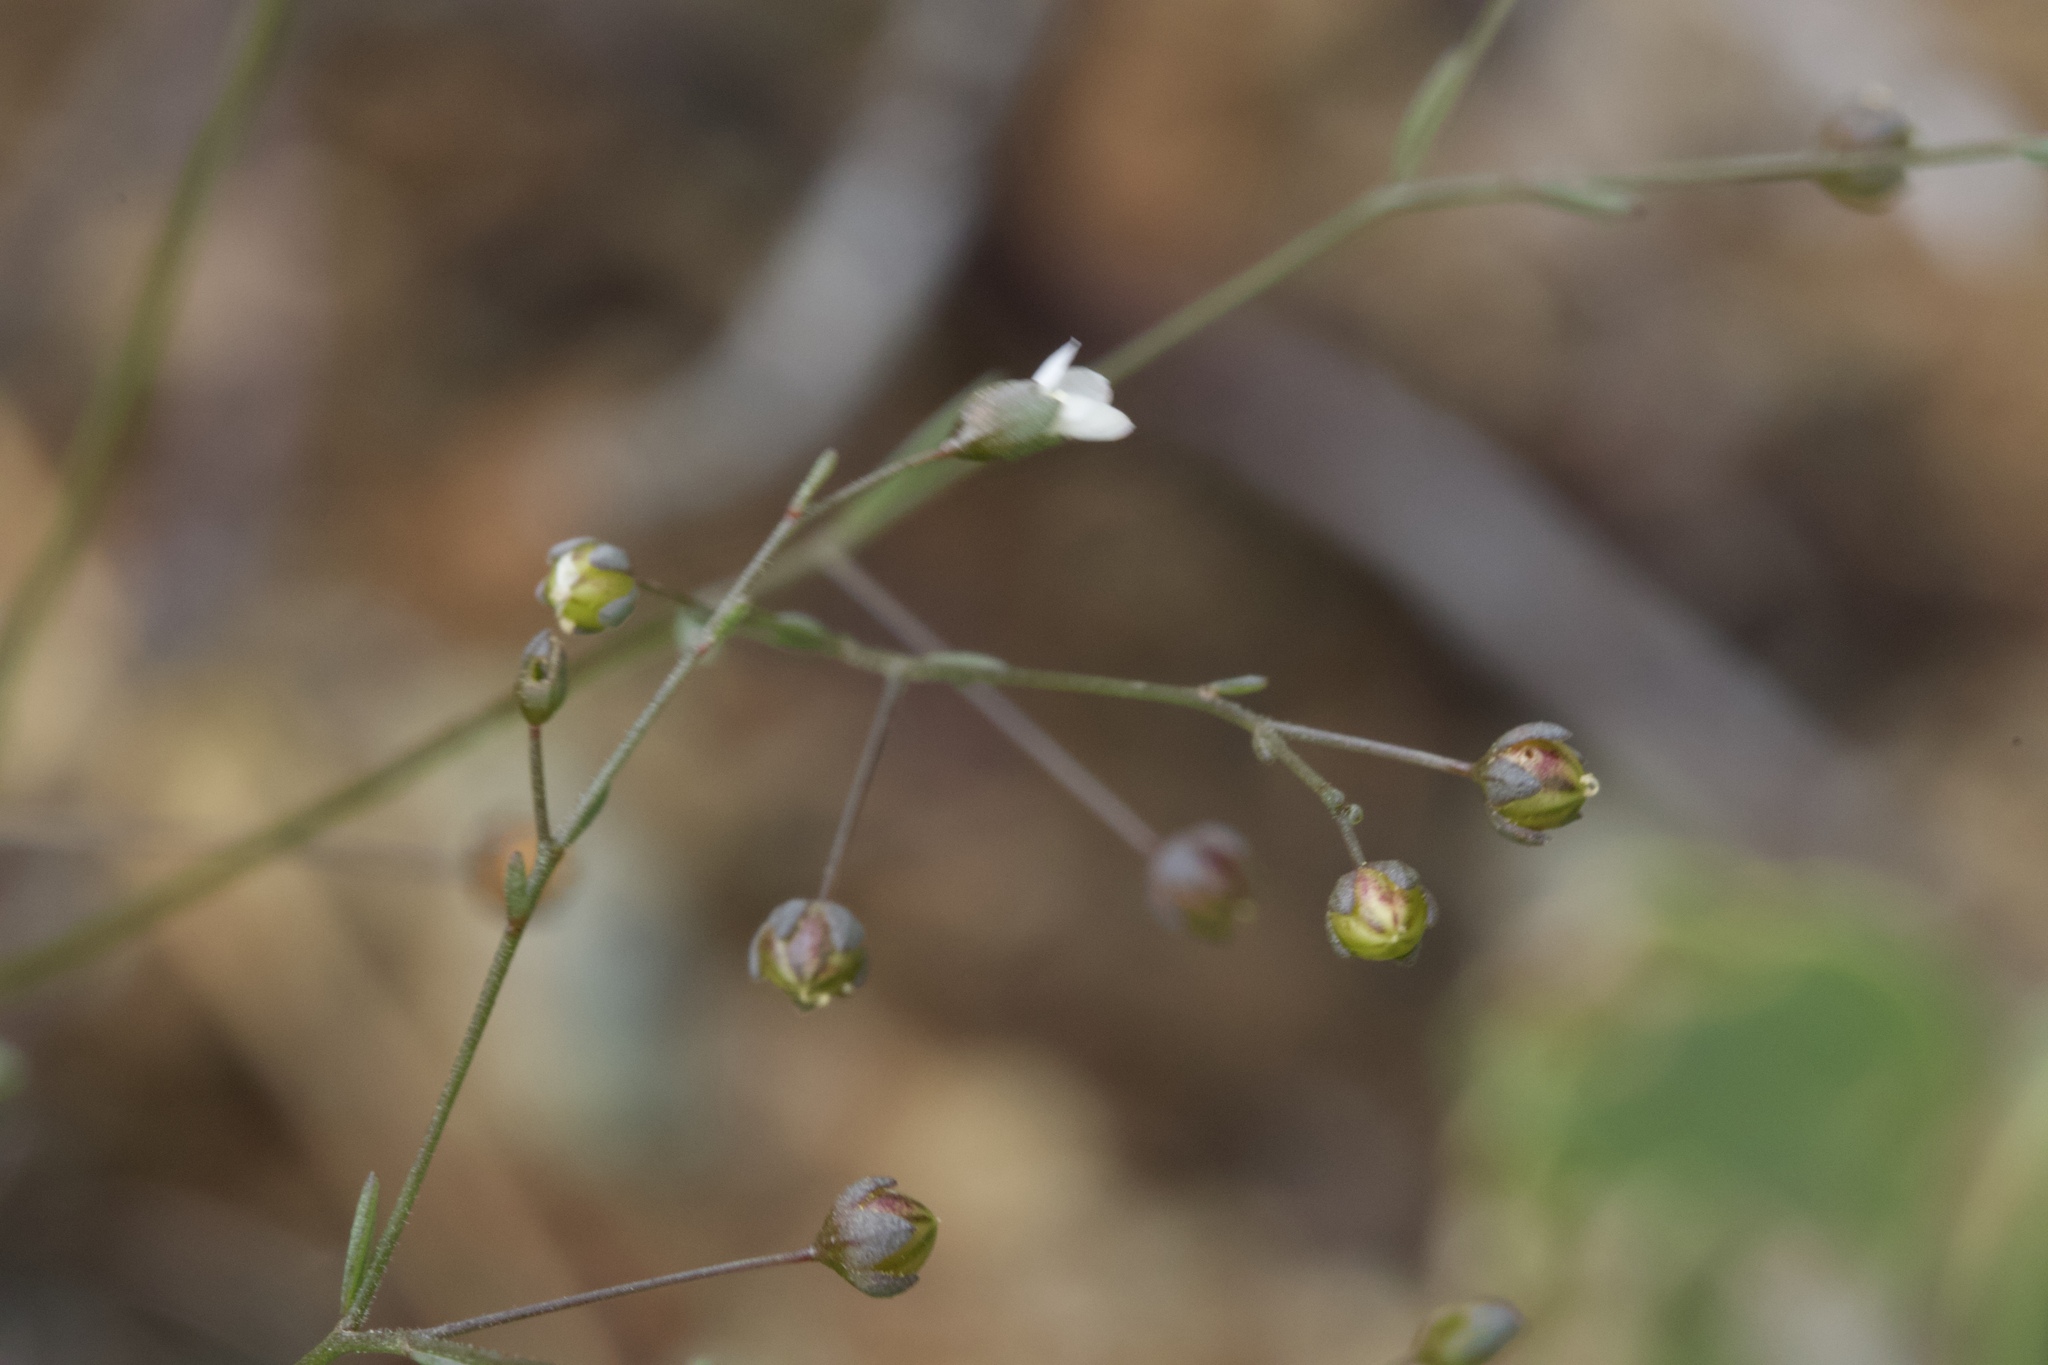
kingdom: Plantae
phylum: Tracheophyta
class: Magnoliopsida
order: Malpighiales
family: Linaceae
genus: Hesperolinon
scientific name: Hesperolinon micranthum
